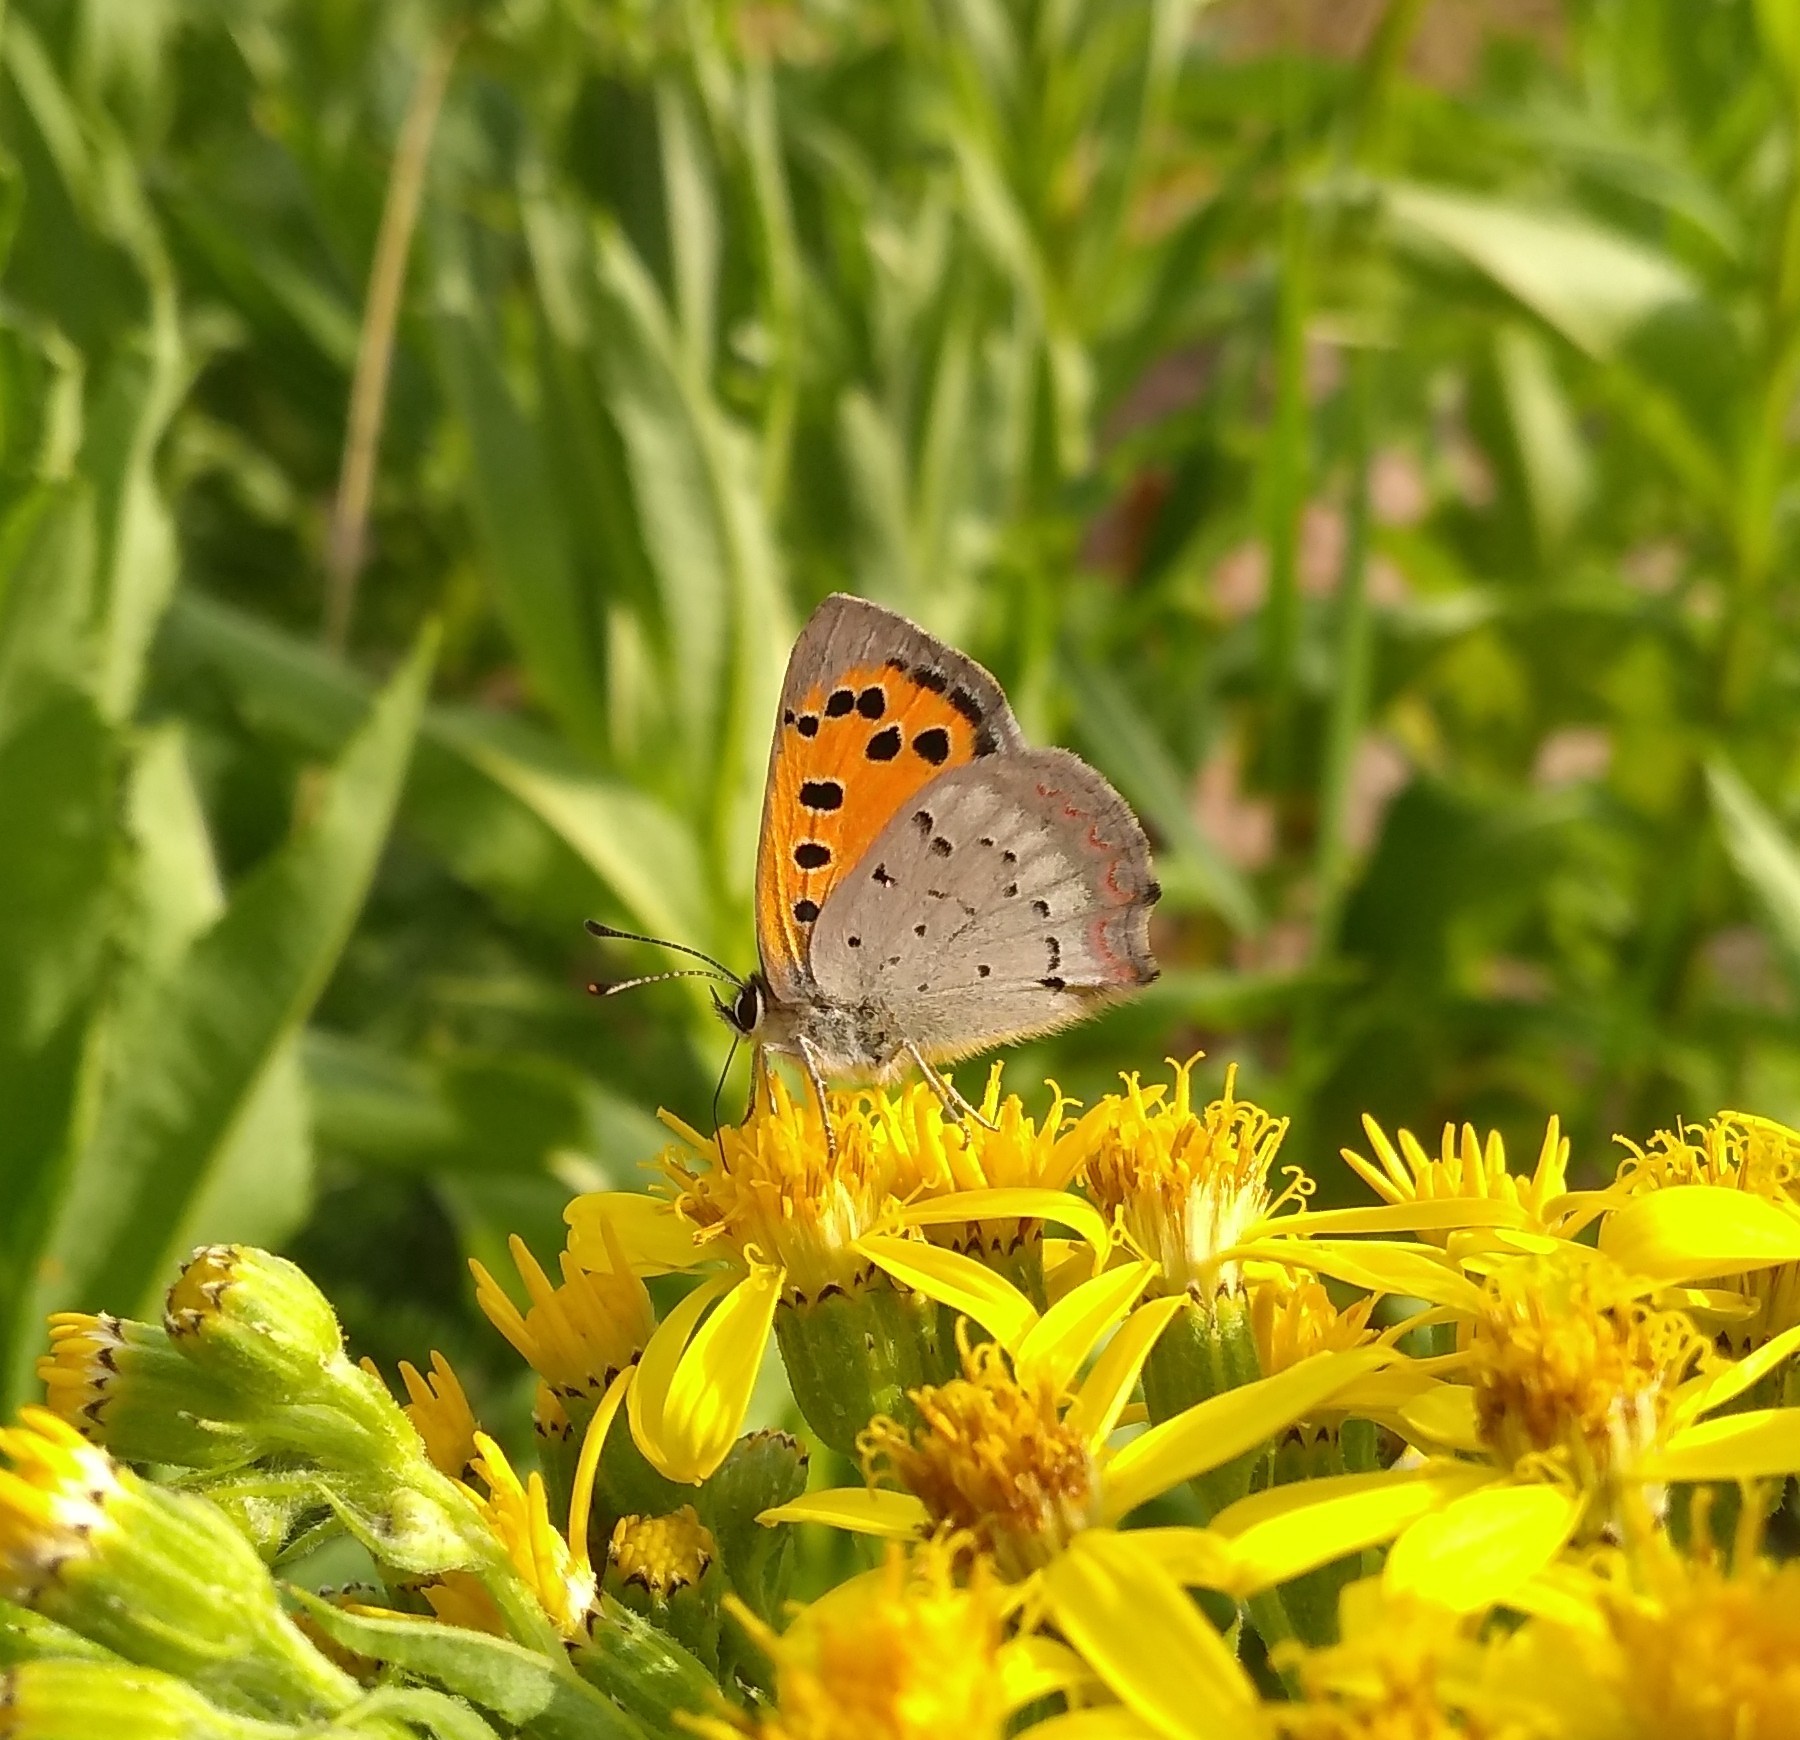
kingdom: Animalia
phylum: Arthropoda
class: Insecta
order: Lepidoptera
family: Lycaenidae
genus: Lycaena
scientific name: Lycaena phlaeas
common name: Small copper
